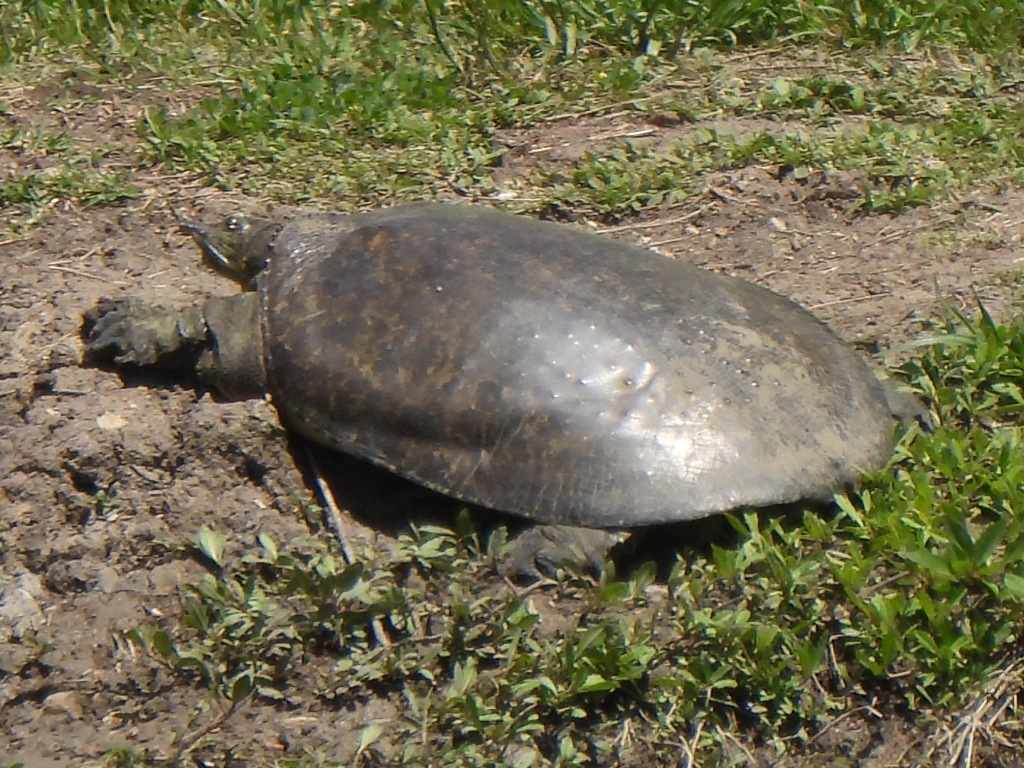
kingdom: Animalia
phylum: Chordata
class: Testudines
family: Trionychidae
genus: Apalone
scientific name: Apalone spinifera
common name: Spiny softshell turtle
